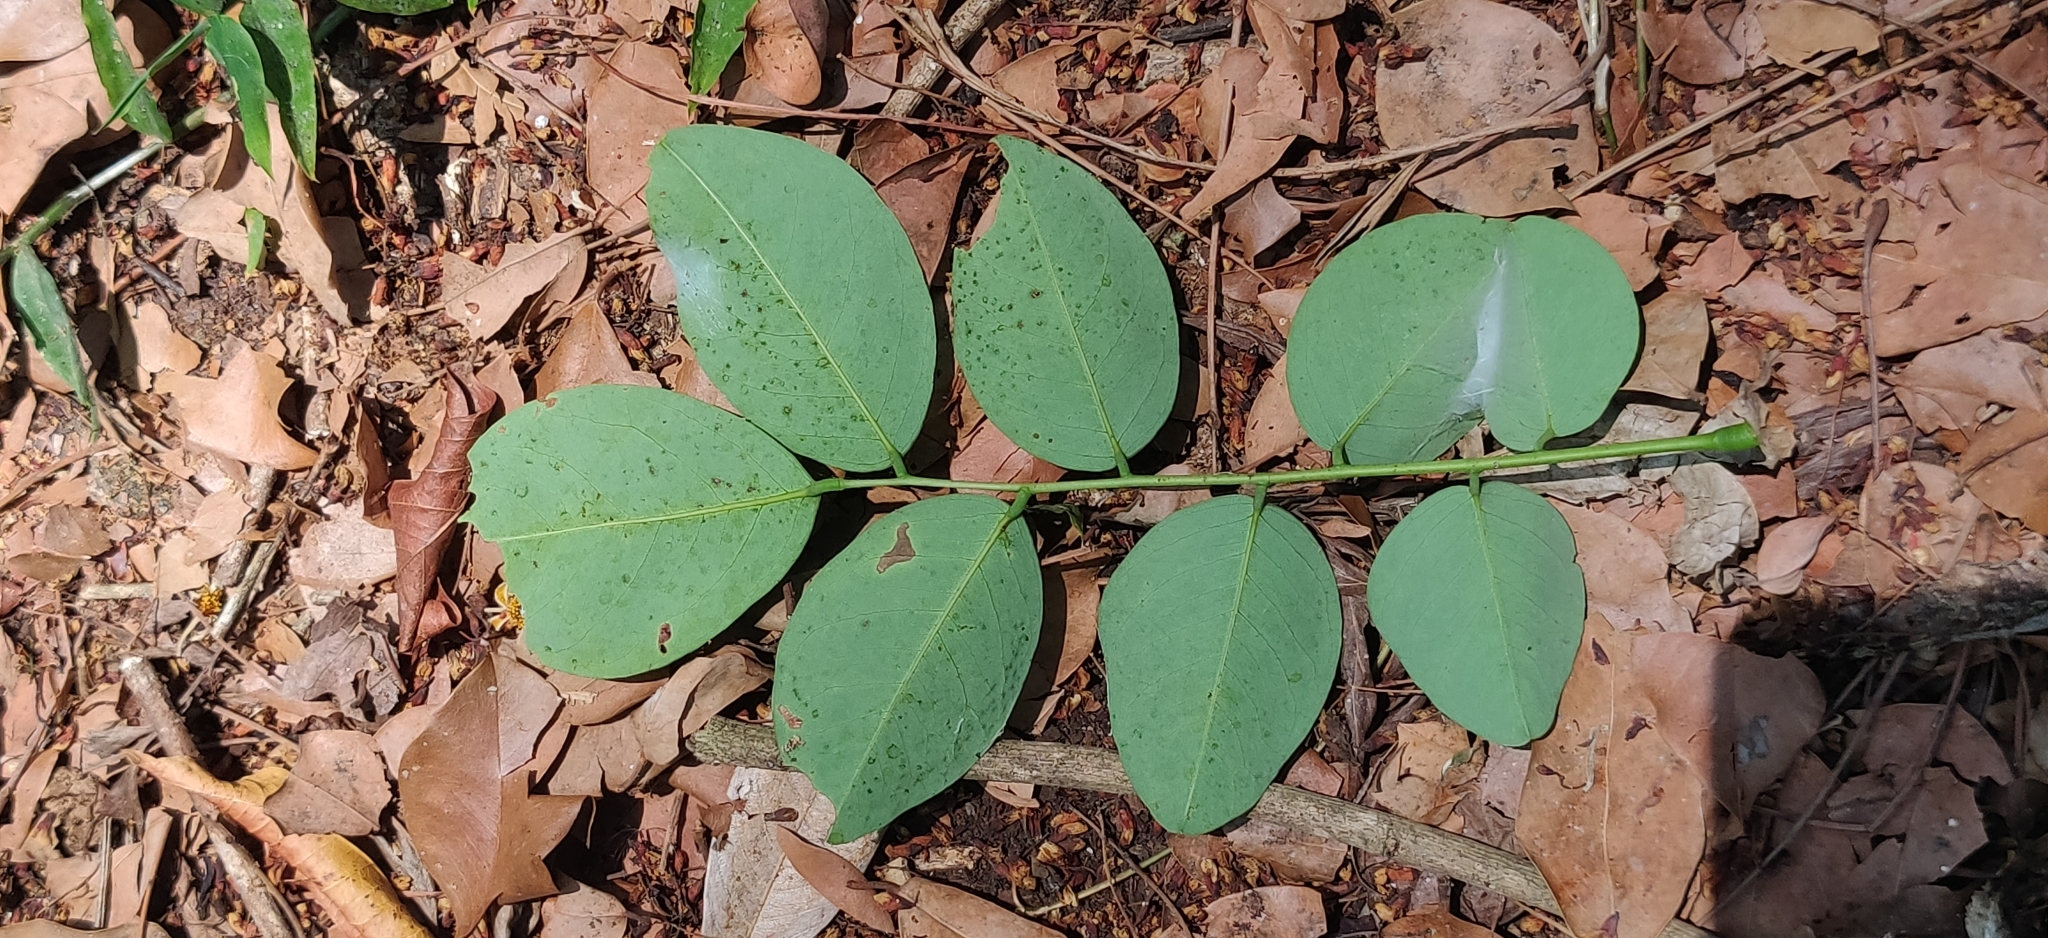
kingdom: Plantae
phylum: Tracheophyta
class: Magnoliopsida
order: Fabales
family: Fabaceae
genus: Dalbergia
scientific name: Dalbergia latifolia
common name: Bombay blackwood
